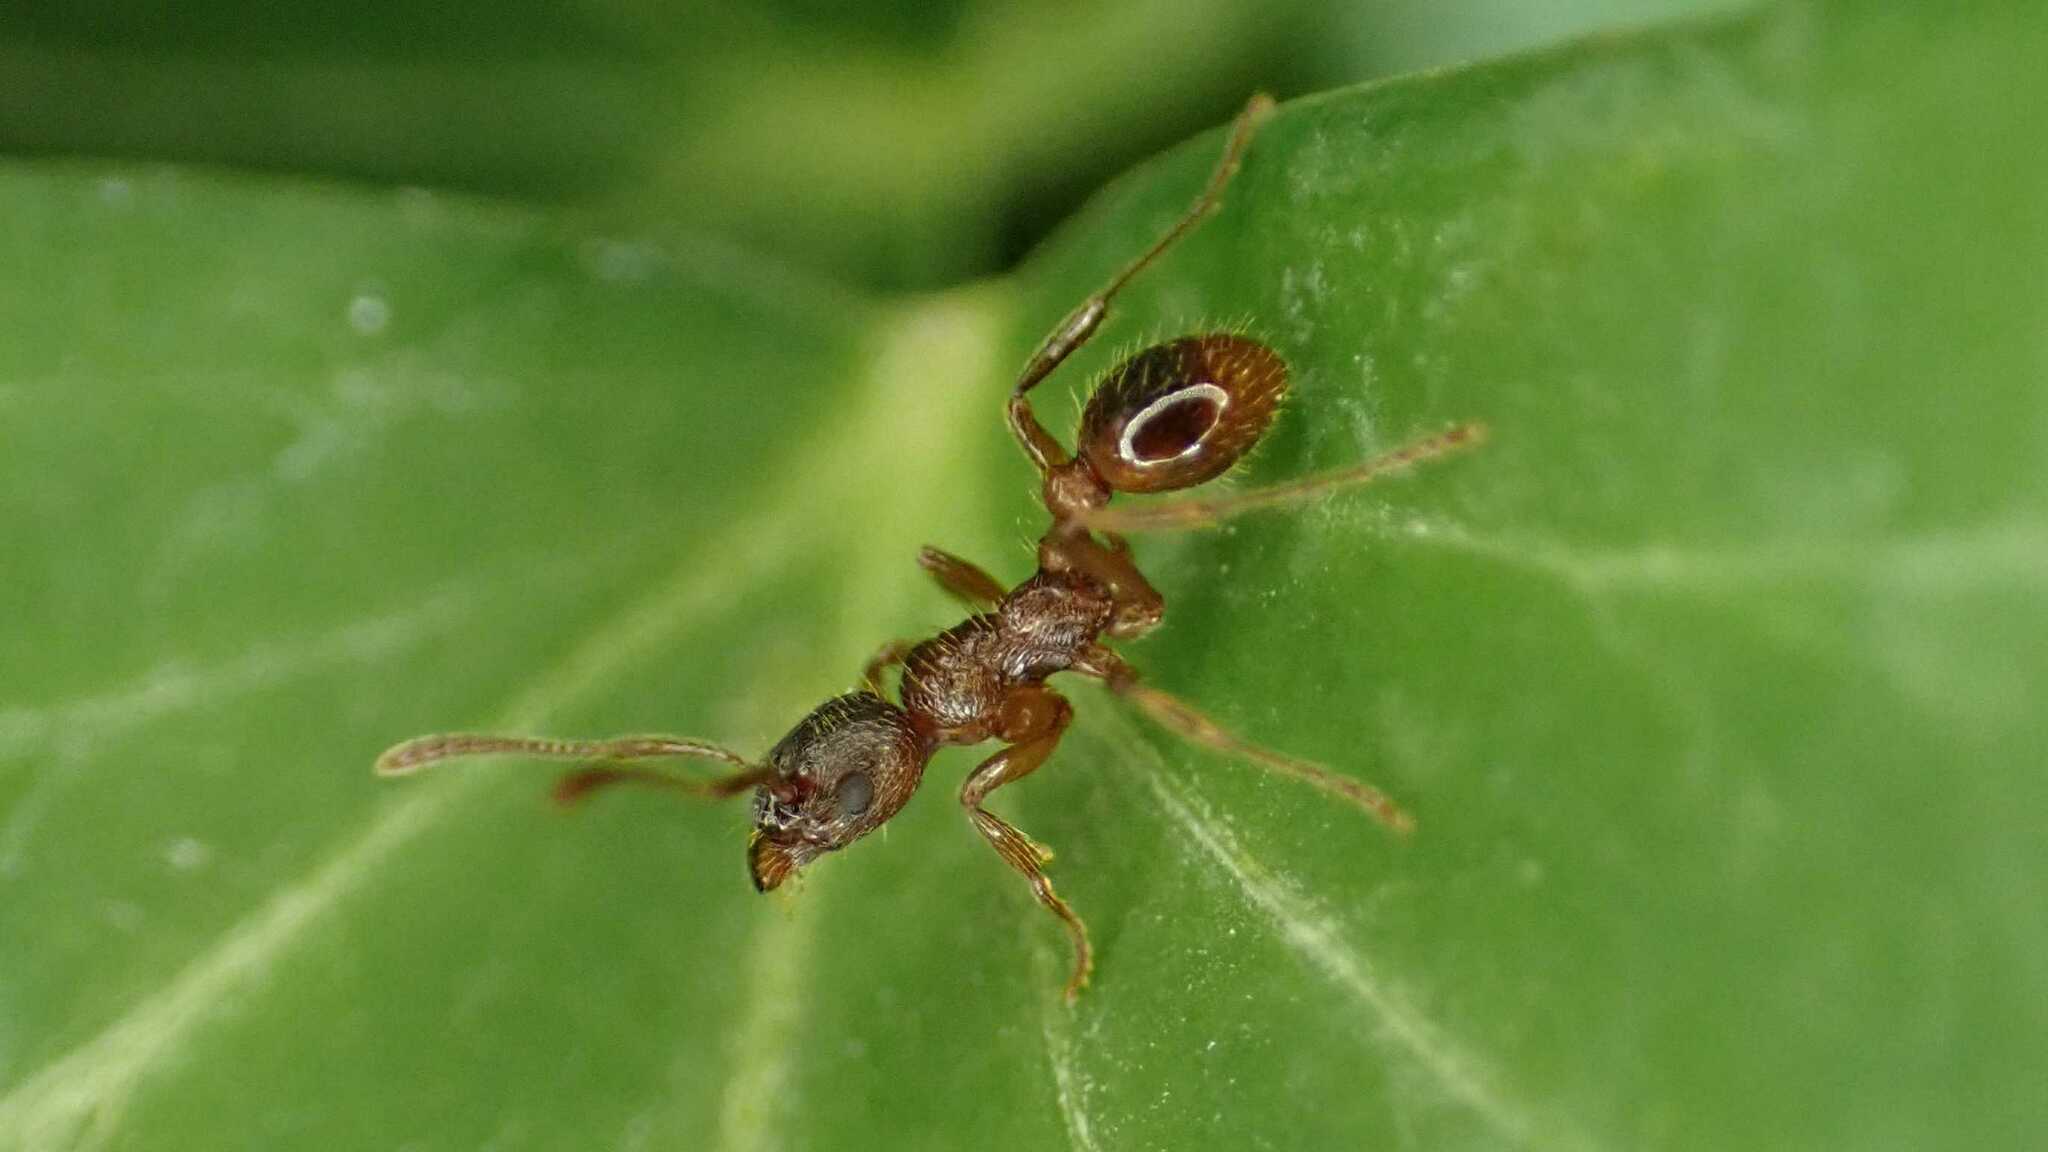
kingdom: Animalia
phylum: Arthropoda
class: Insecta
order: Hymenoptera
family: Formicidae
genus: Myrmica
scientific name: Myrmica
